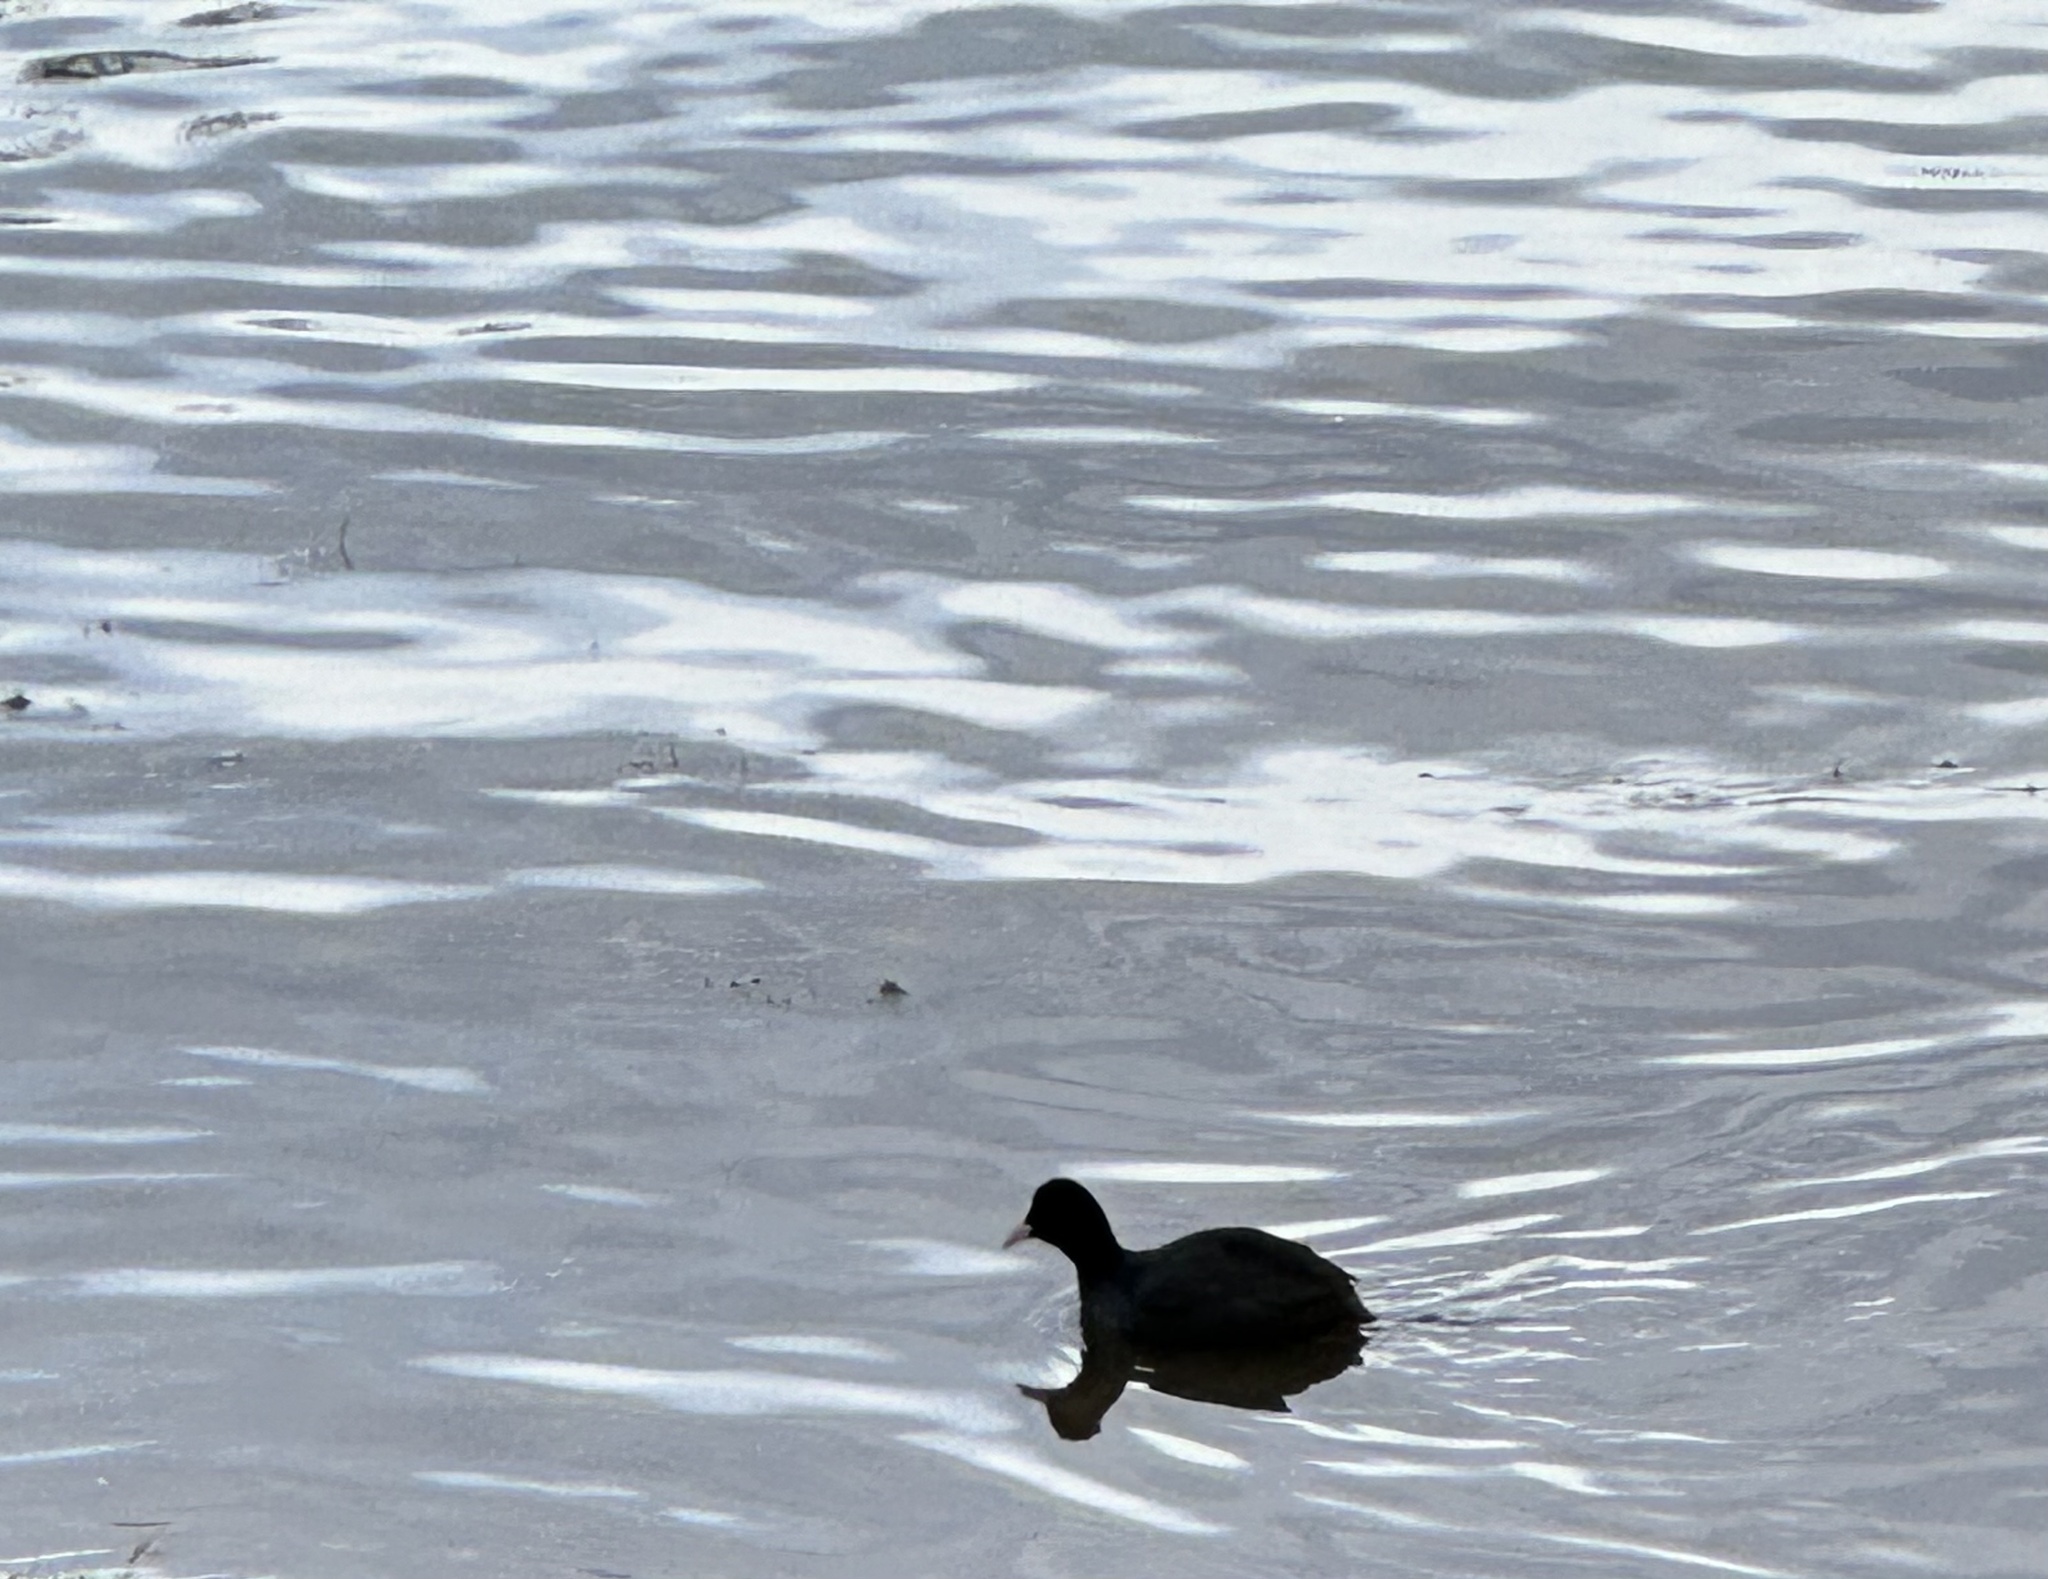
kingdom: Animalia
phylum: Chordata
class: Aves
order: Gruiformes
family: Rallidae
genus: Fulica
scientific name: Fulica atra
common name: Eurasian coot
